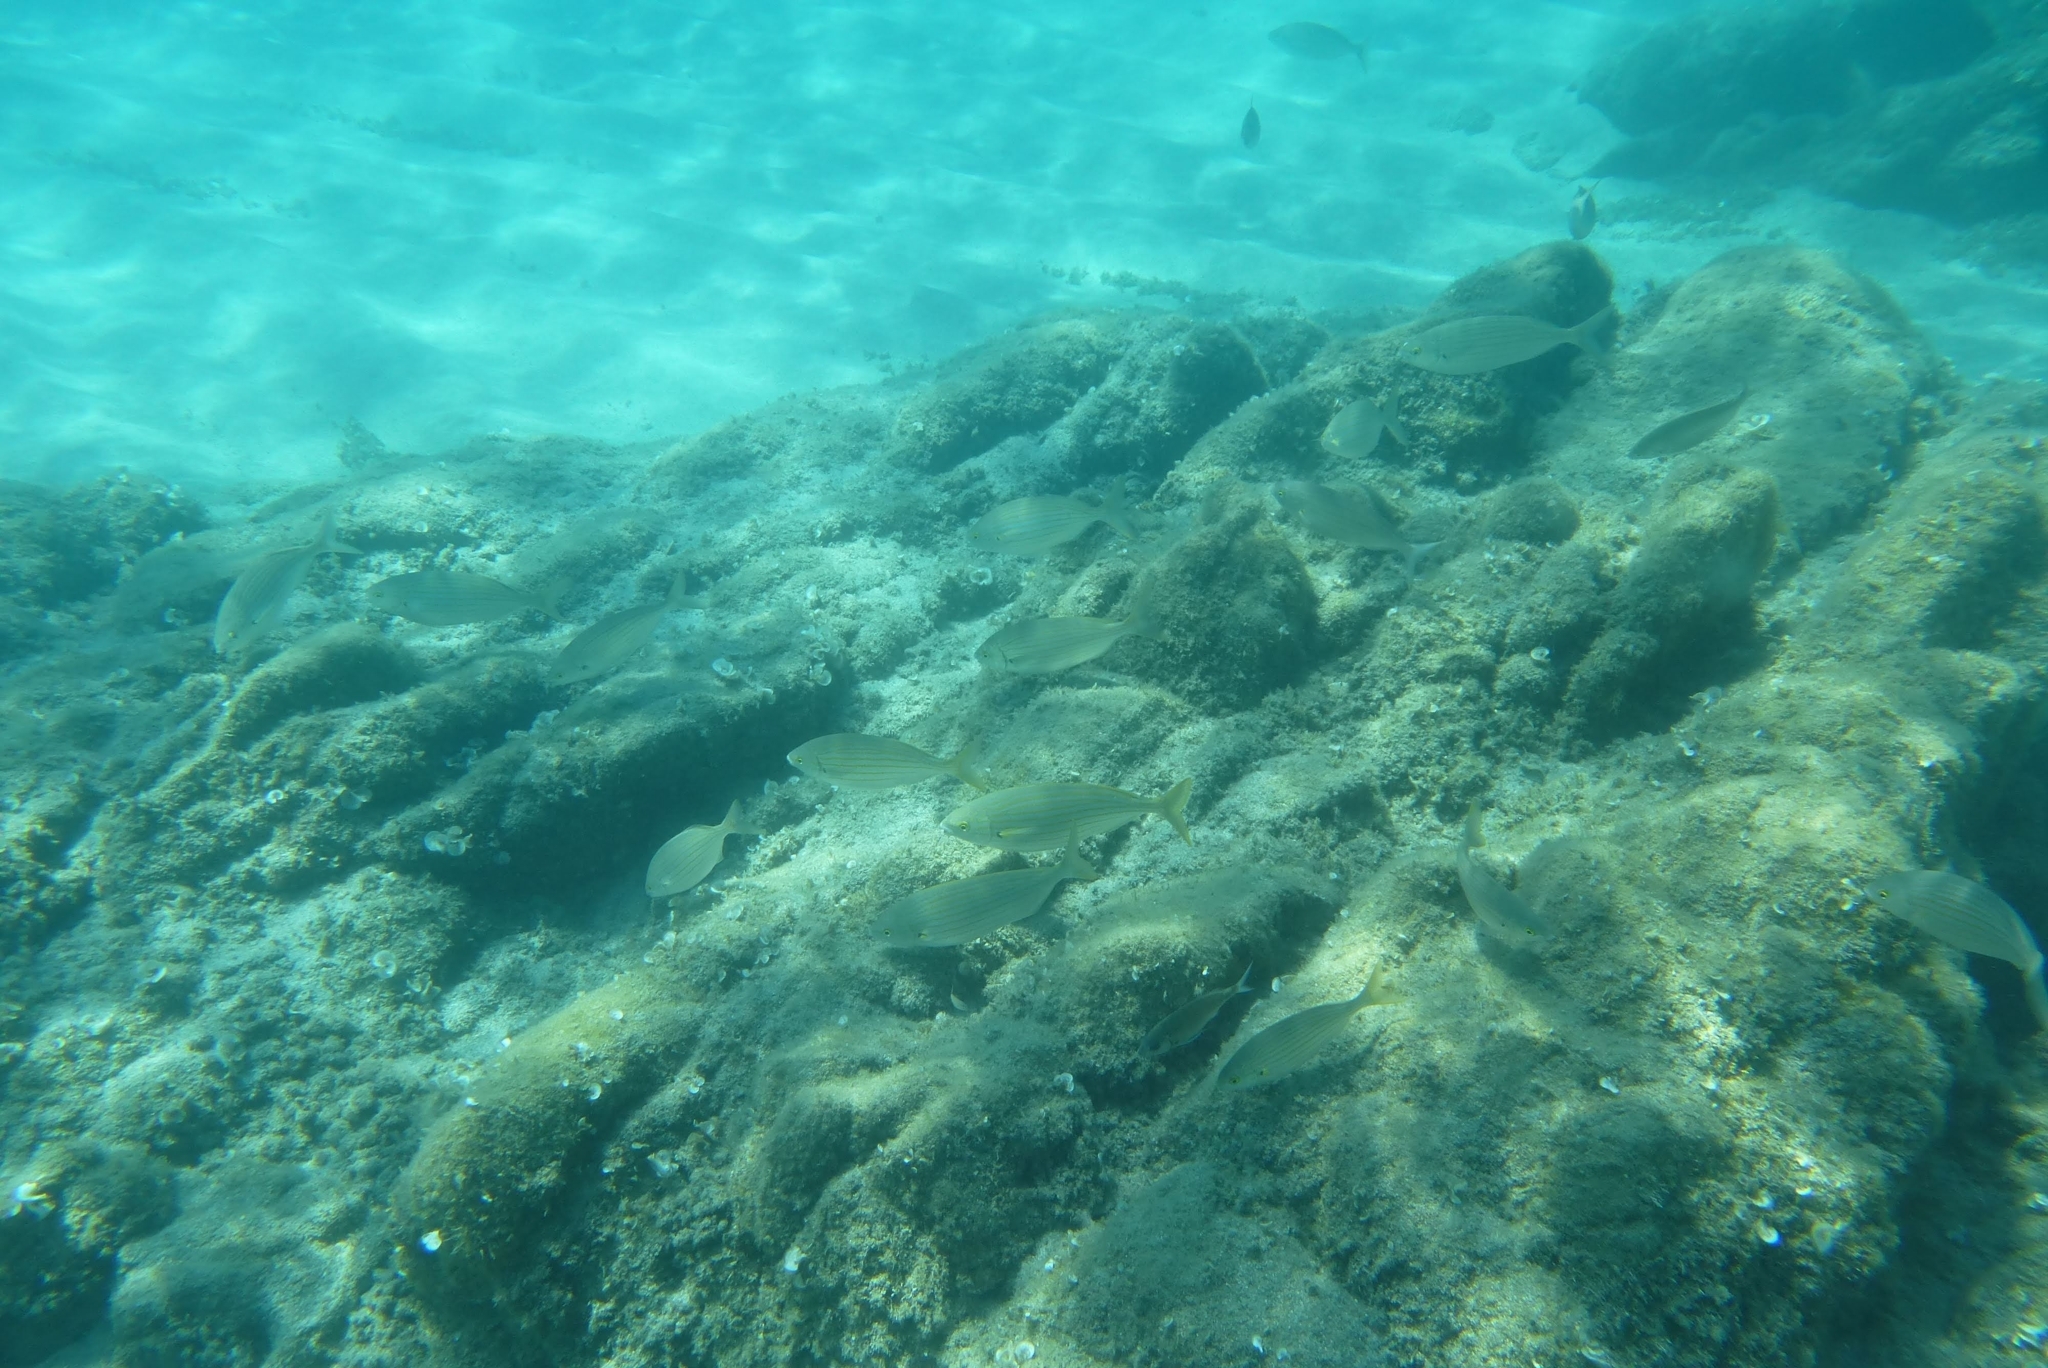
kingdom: Animalia
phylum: Chordata
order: Perciformes
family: Sparidae
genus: Sarpa
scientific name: Sarpa salpa
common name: Salema
